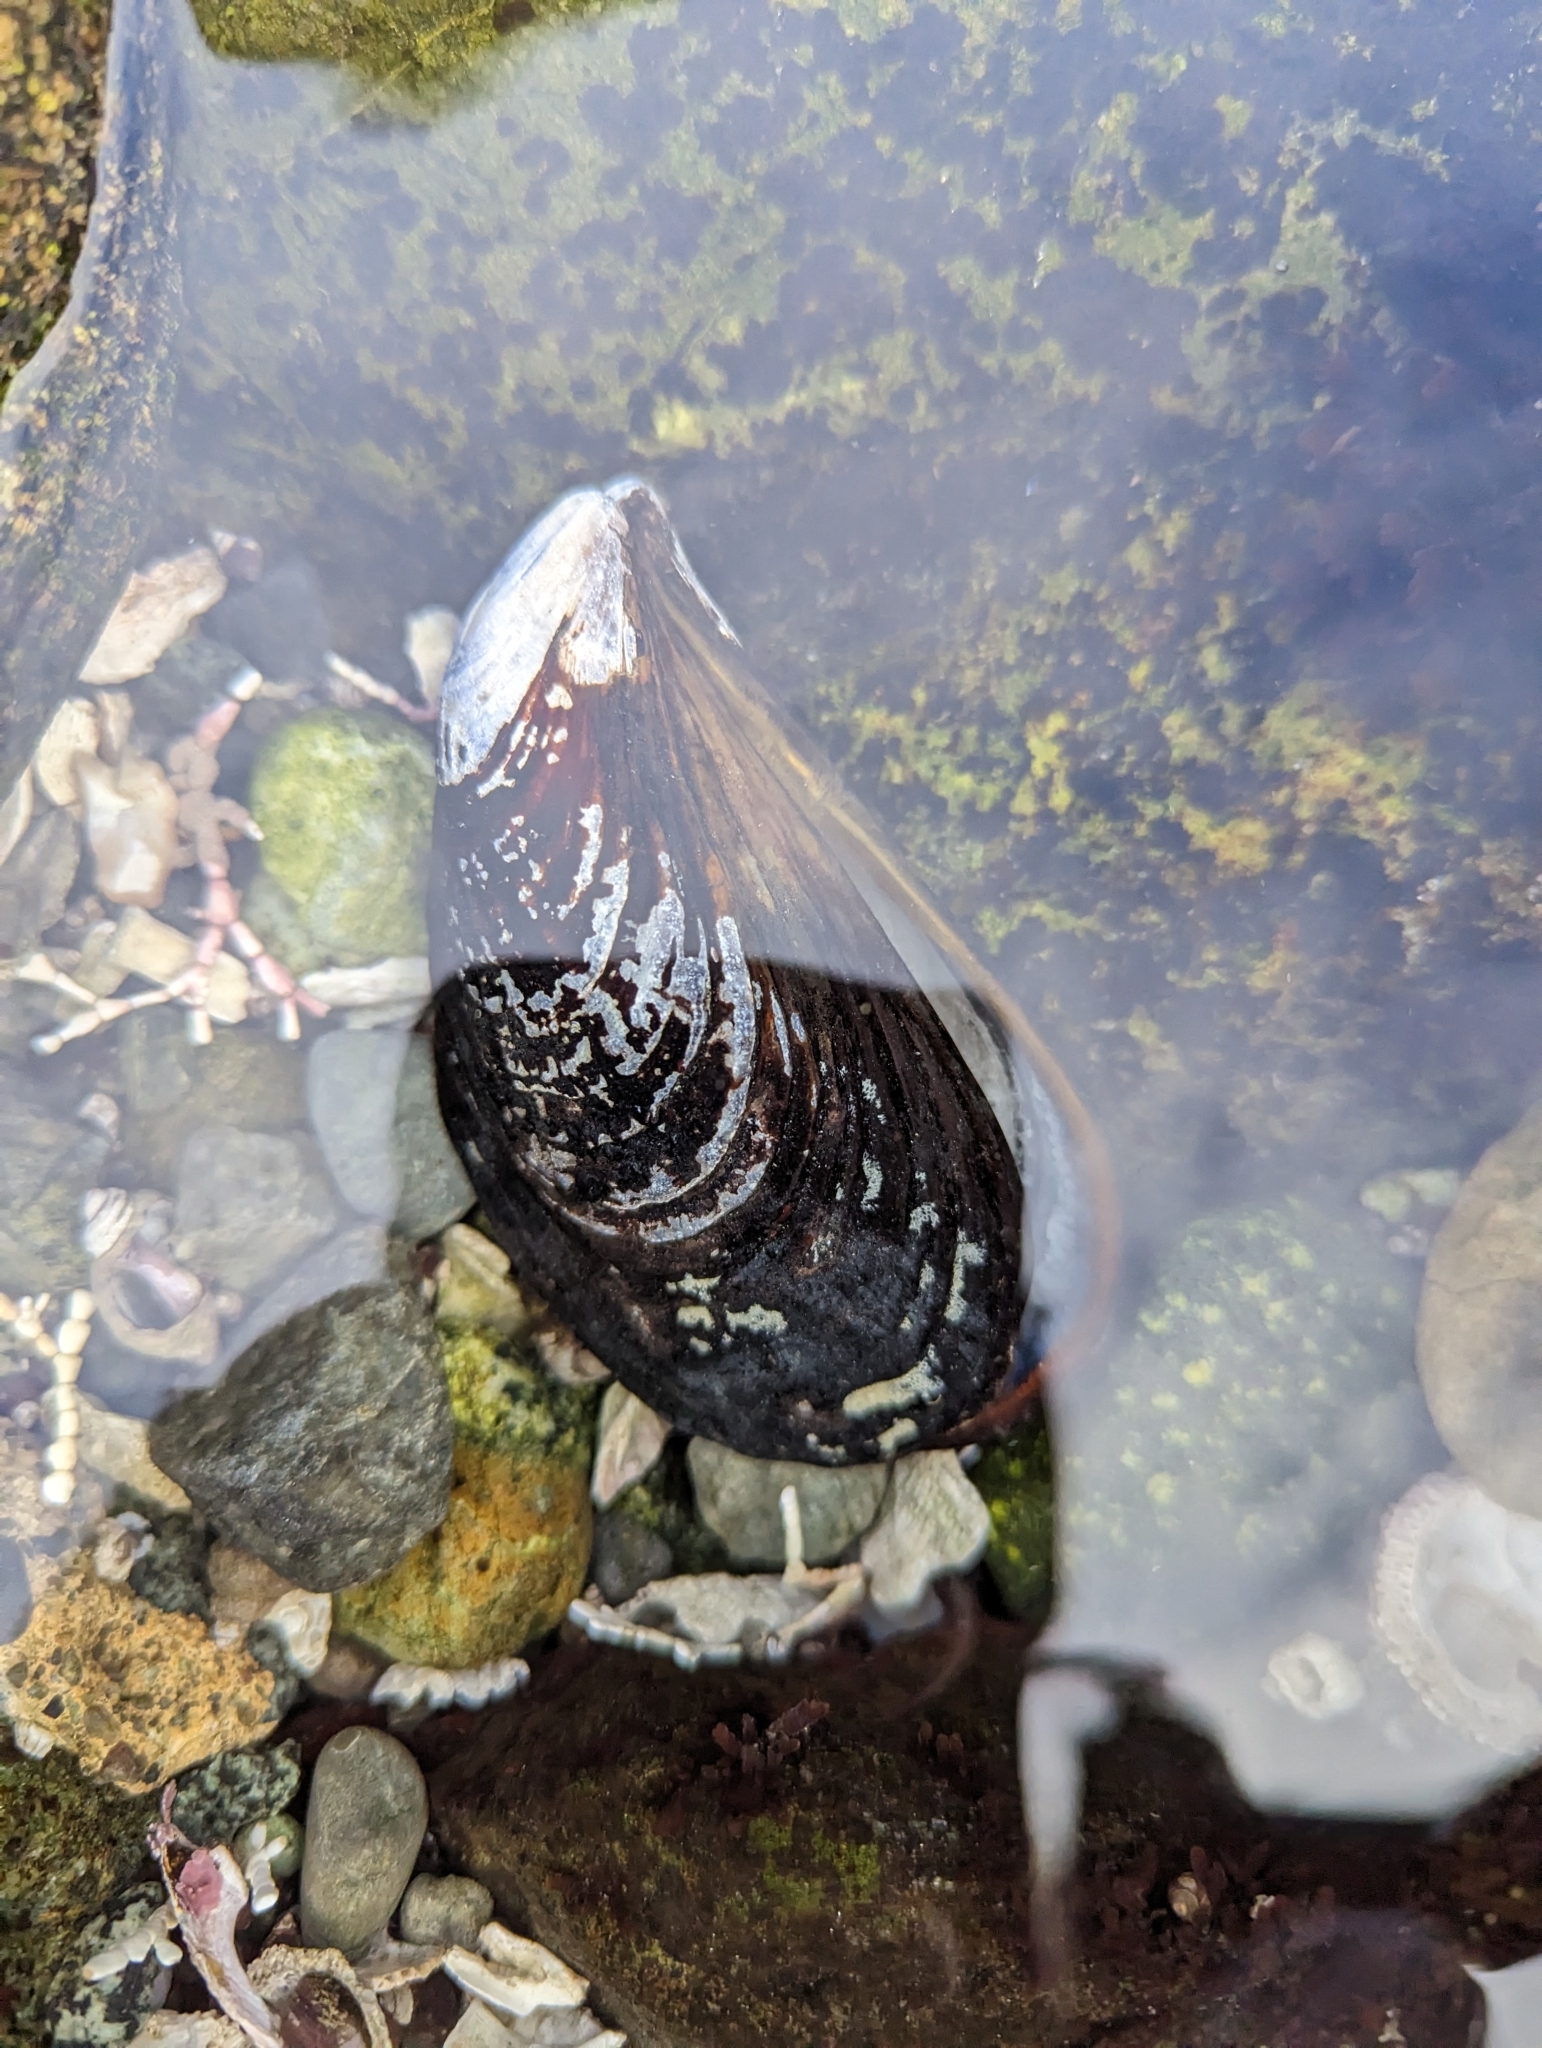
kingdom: Animalia
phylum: Mollusca
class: Bivalvia
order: Mytilida
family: Mytilidae
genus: Mytilus
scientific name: Mytilus californianus
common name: California mussel
